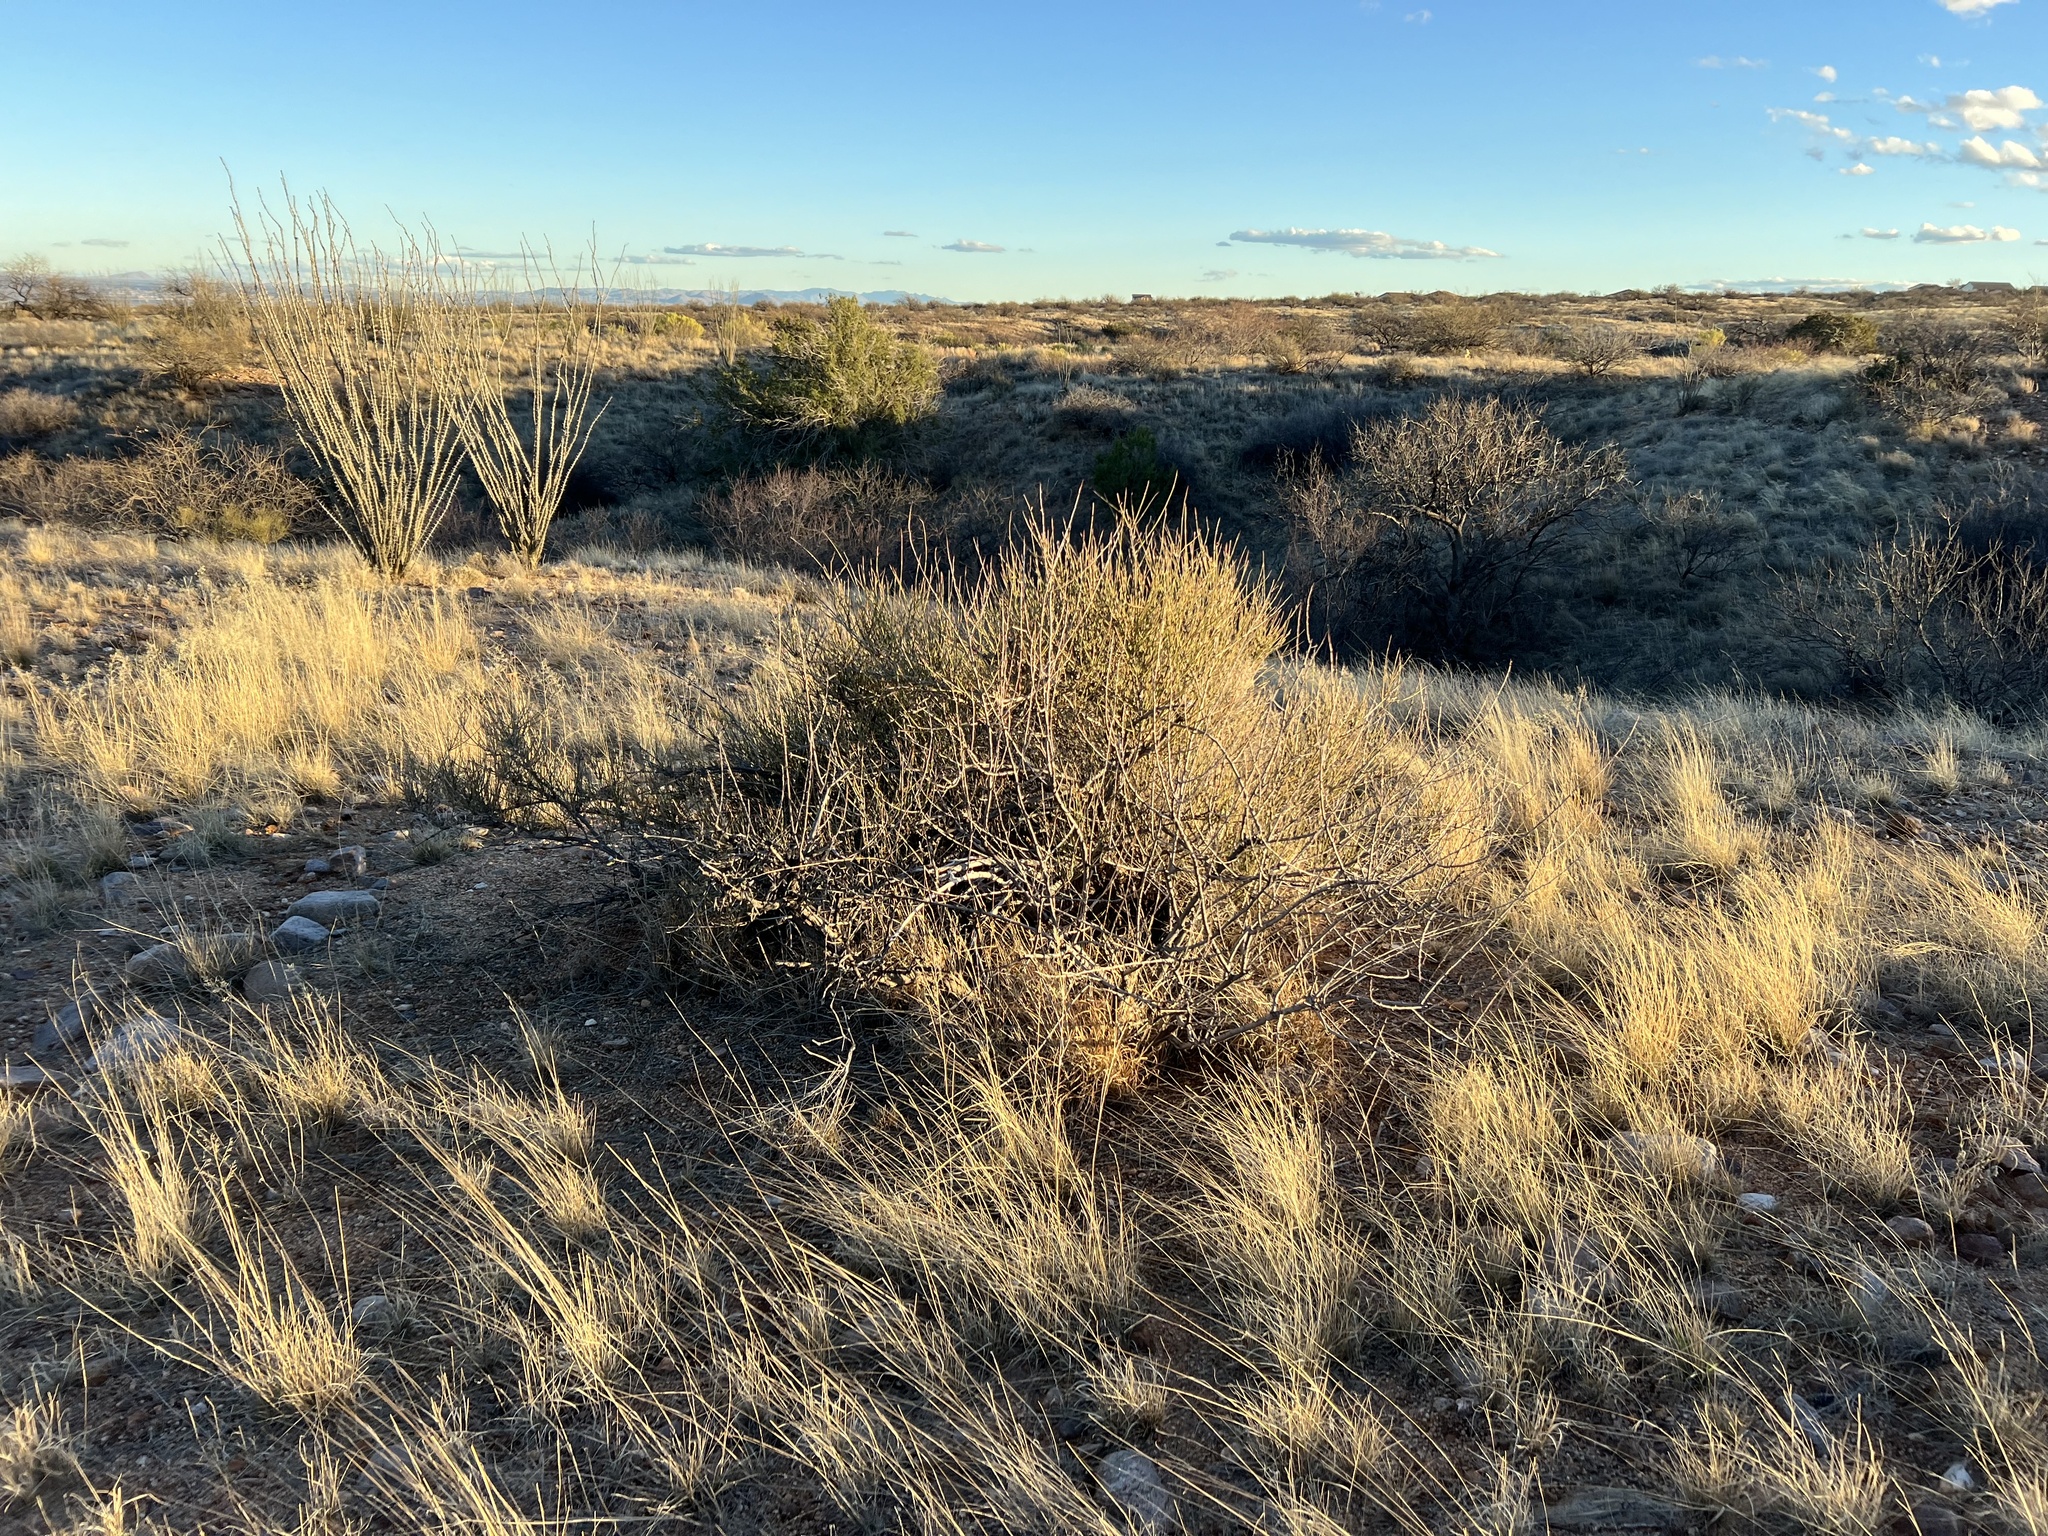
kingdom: Plantae
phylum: Tracheophyta
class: Gnetopsida
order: Ephedrales
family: Ephedraceae
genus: Ephedra
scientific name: Ephedra trifurca
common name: Mexican-tea
